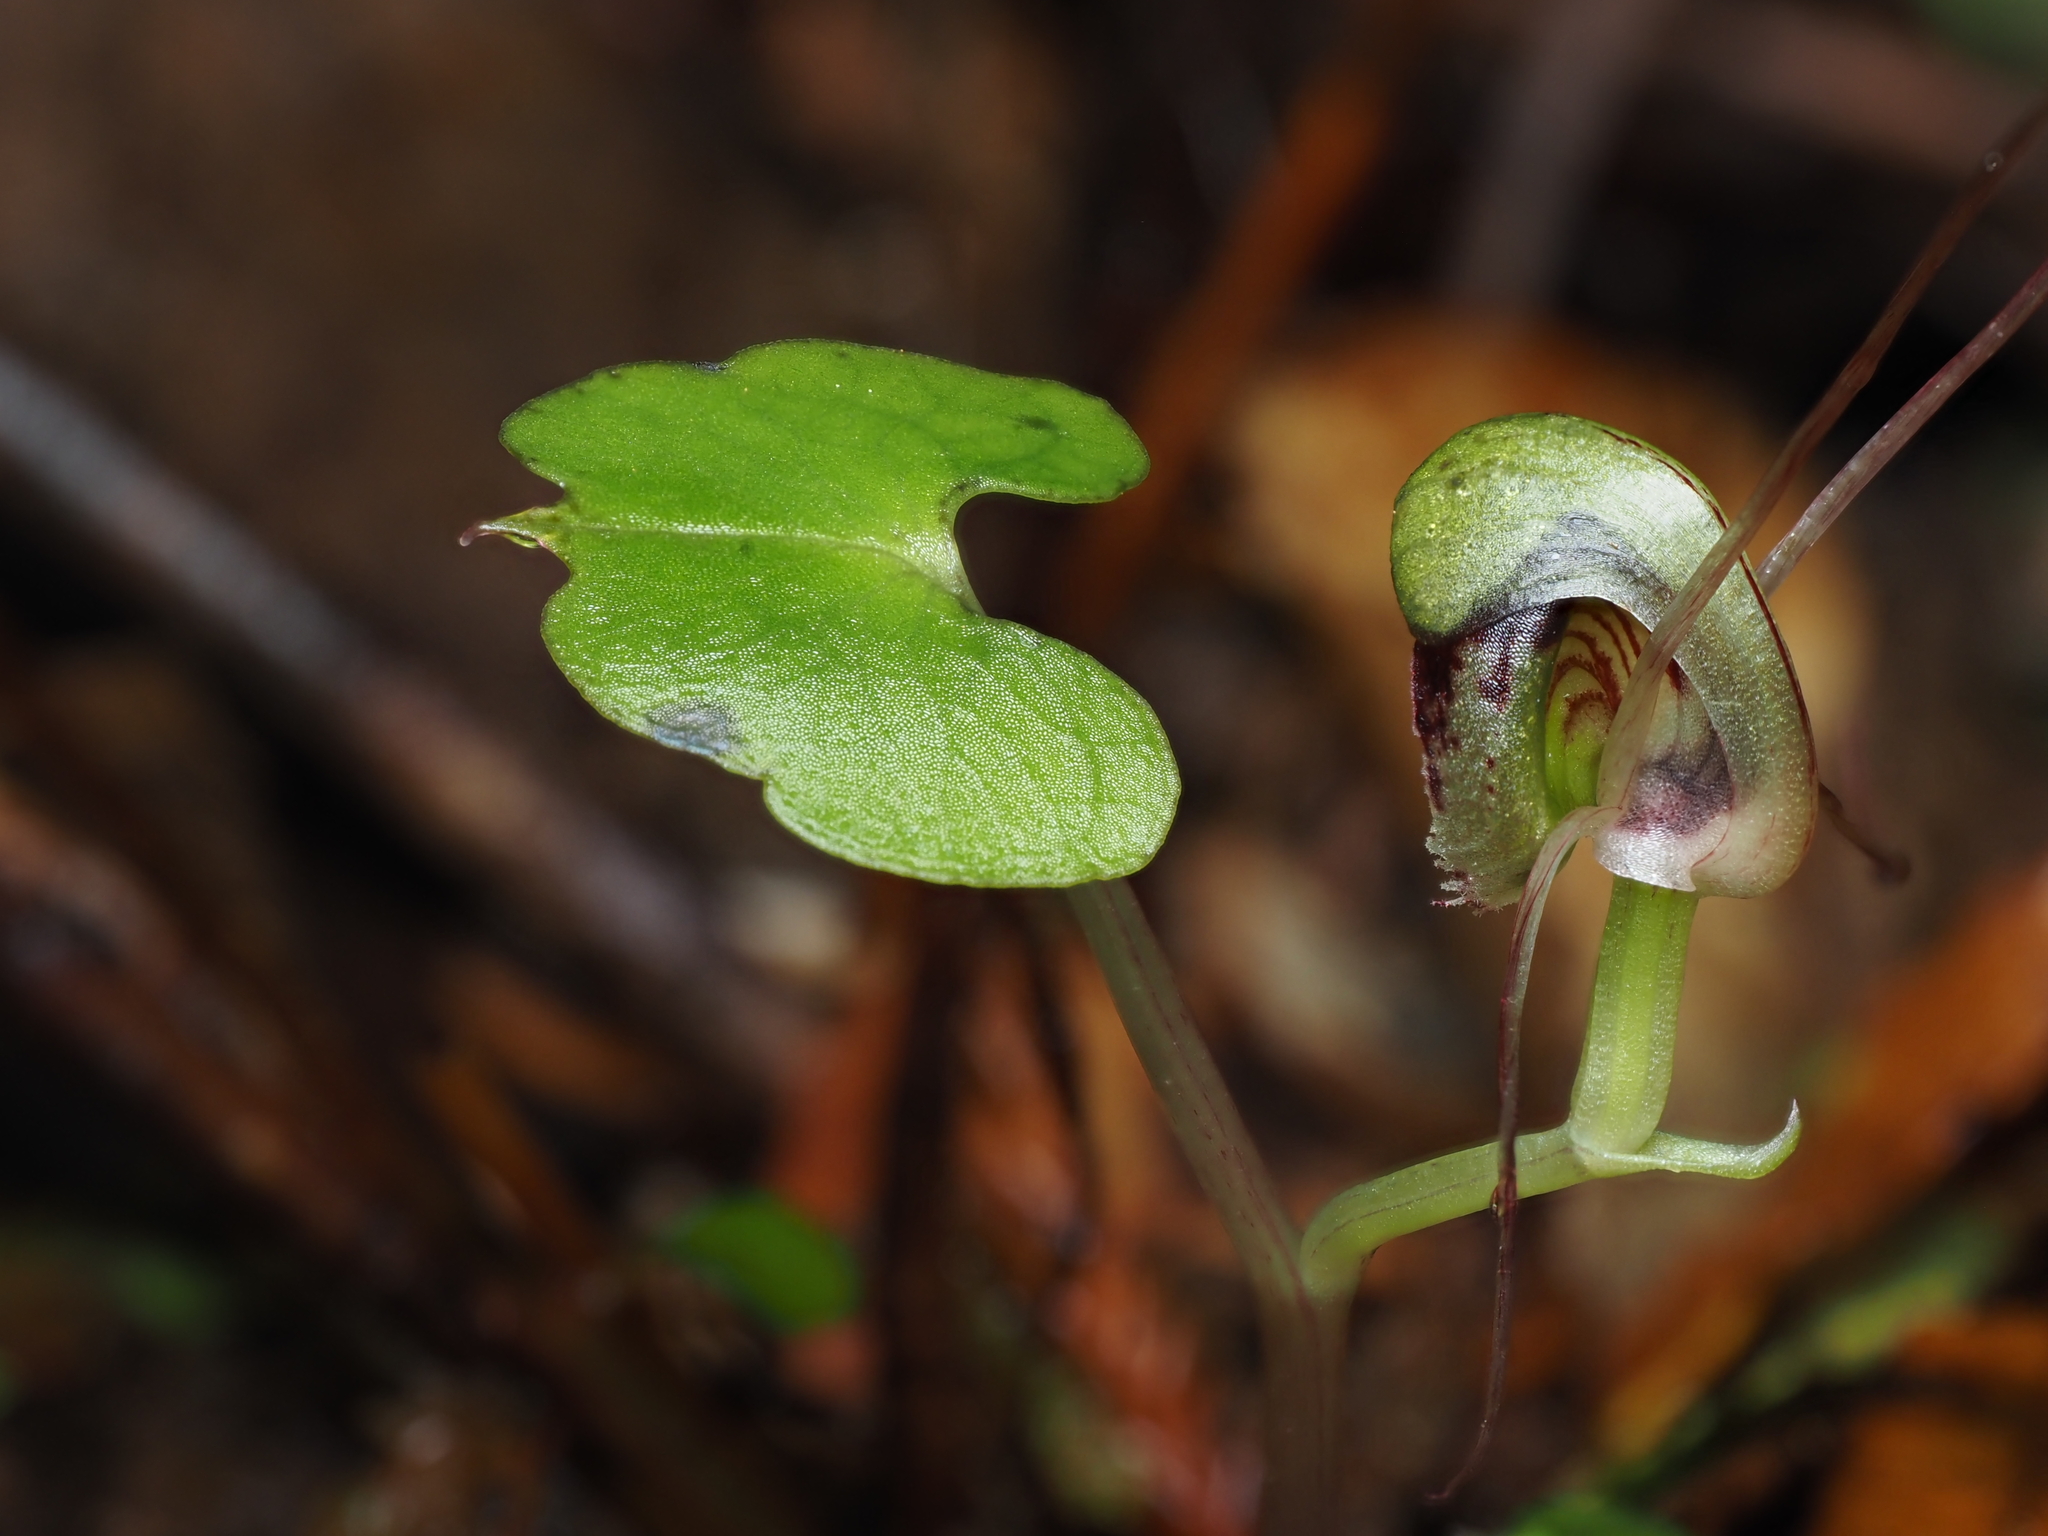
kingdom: Plantae
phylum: Tracheophyta
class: Liliopsida
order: Asparagales
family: Orchidaceae
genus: Corybas
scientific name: Corybas vitreus
